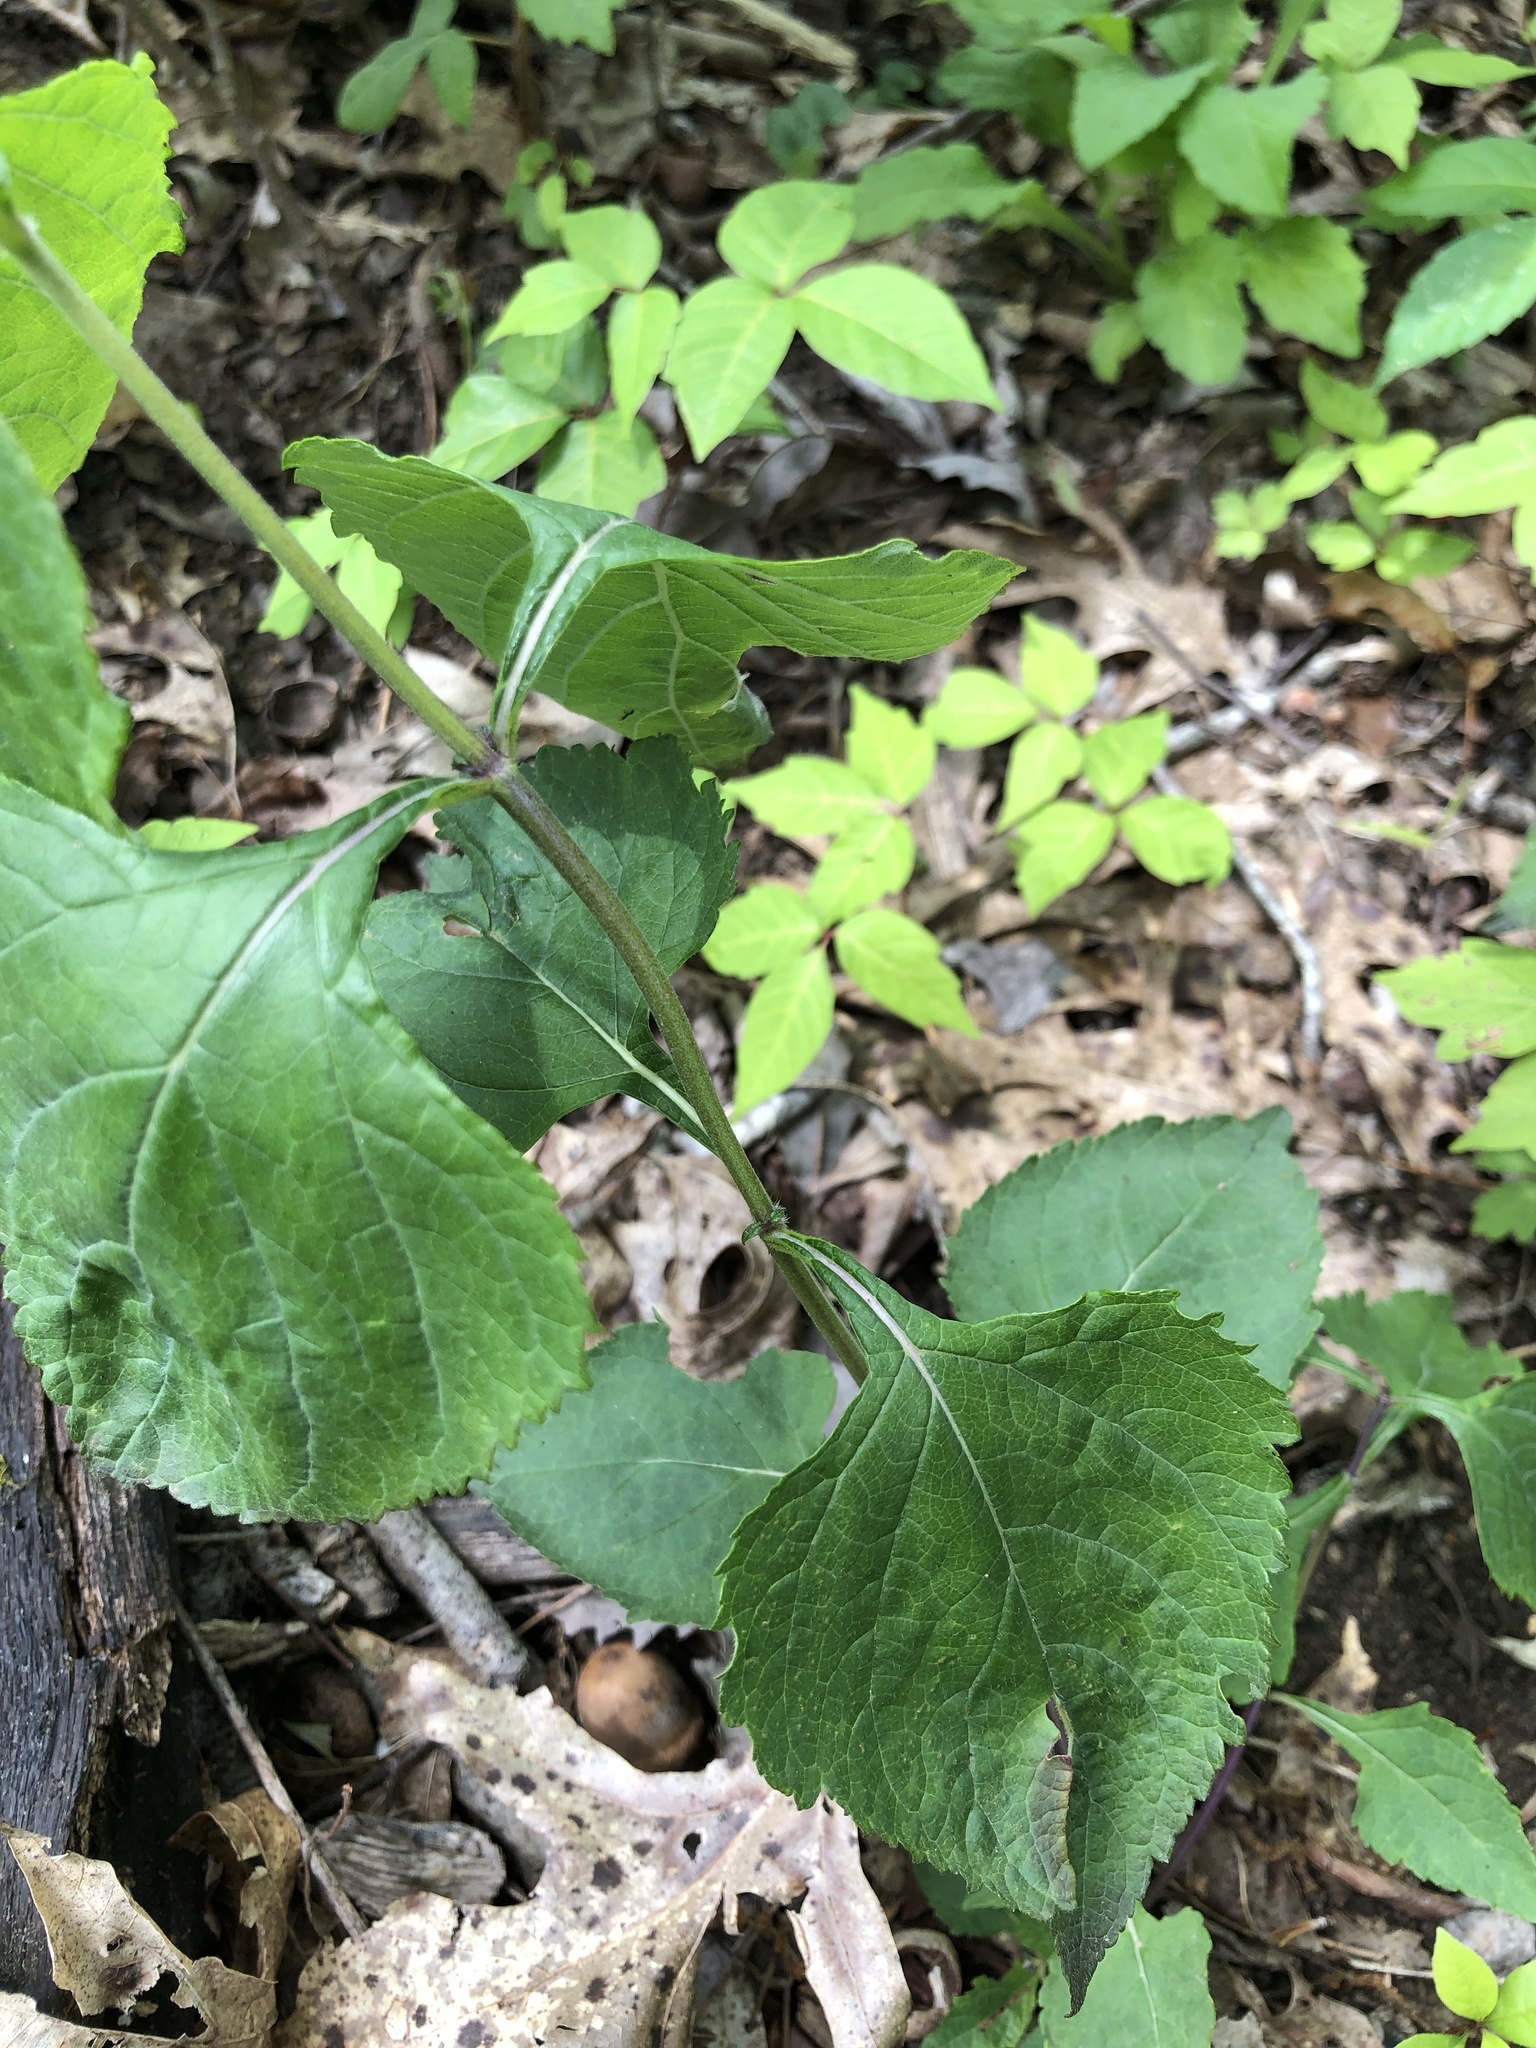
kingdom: Plantae
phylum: Tracheophyta
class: Magnoliopsida
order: Lamiales
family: Lamiaceae
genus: Salvia
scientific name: Salvia urticifolia
